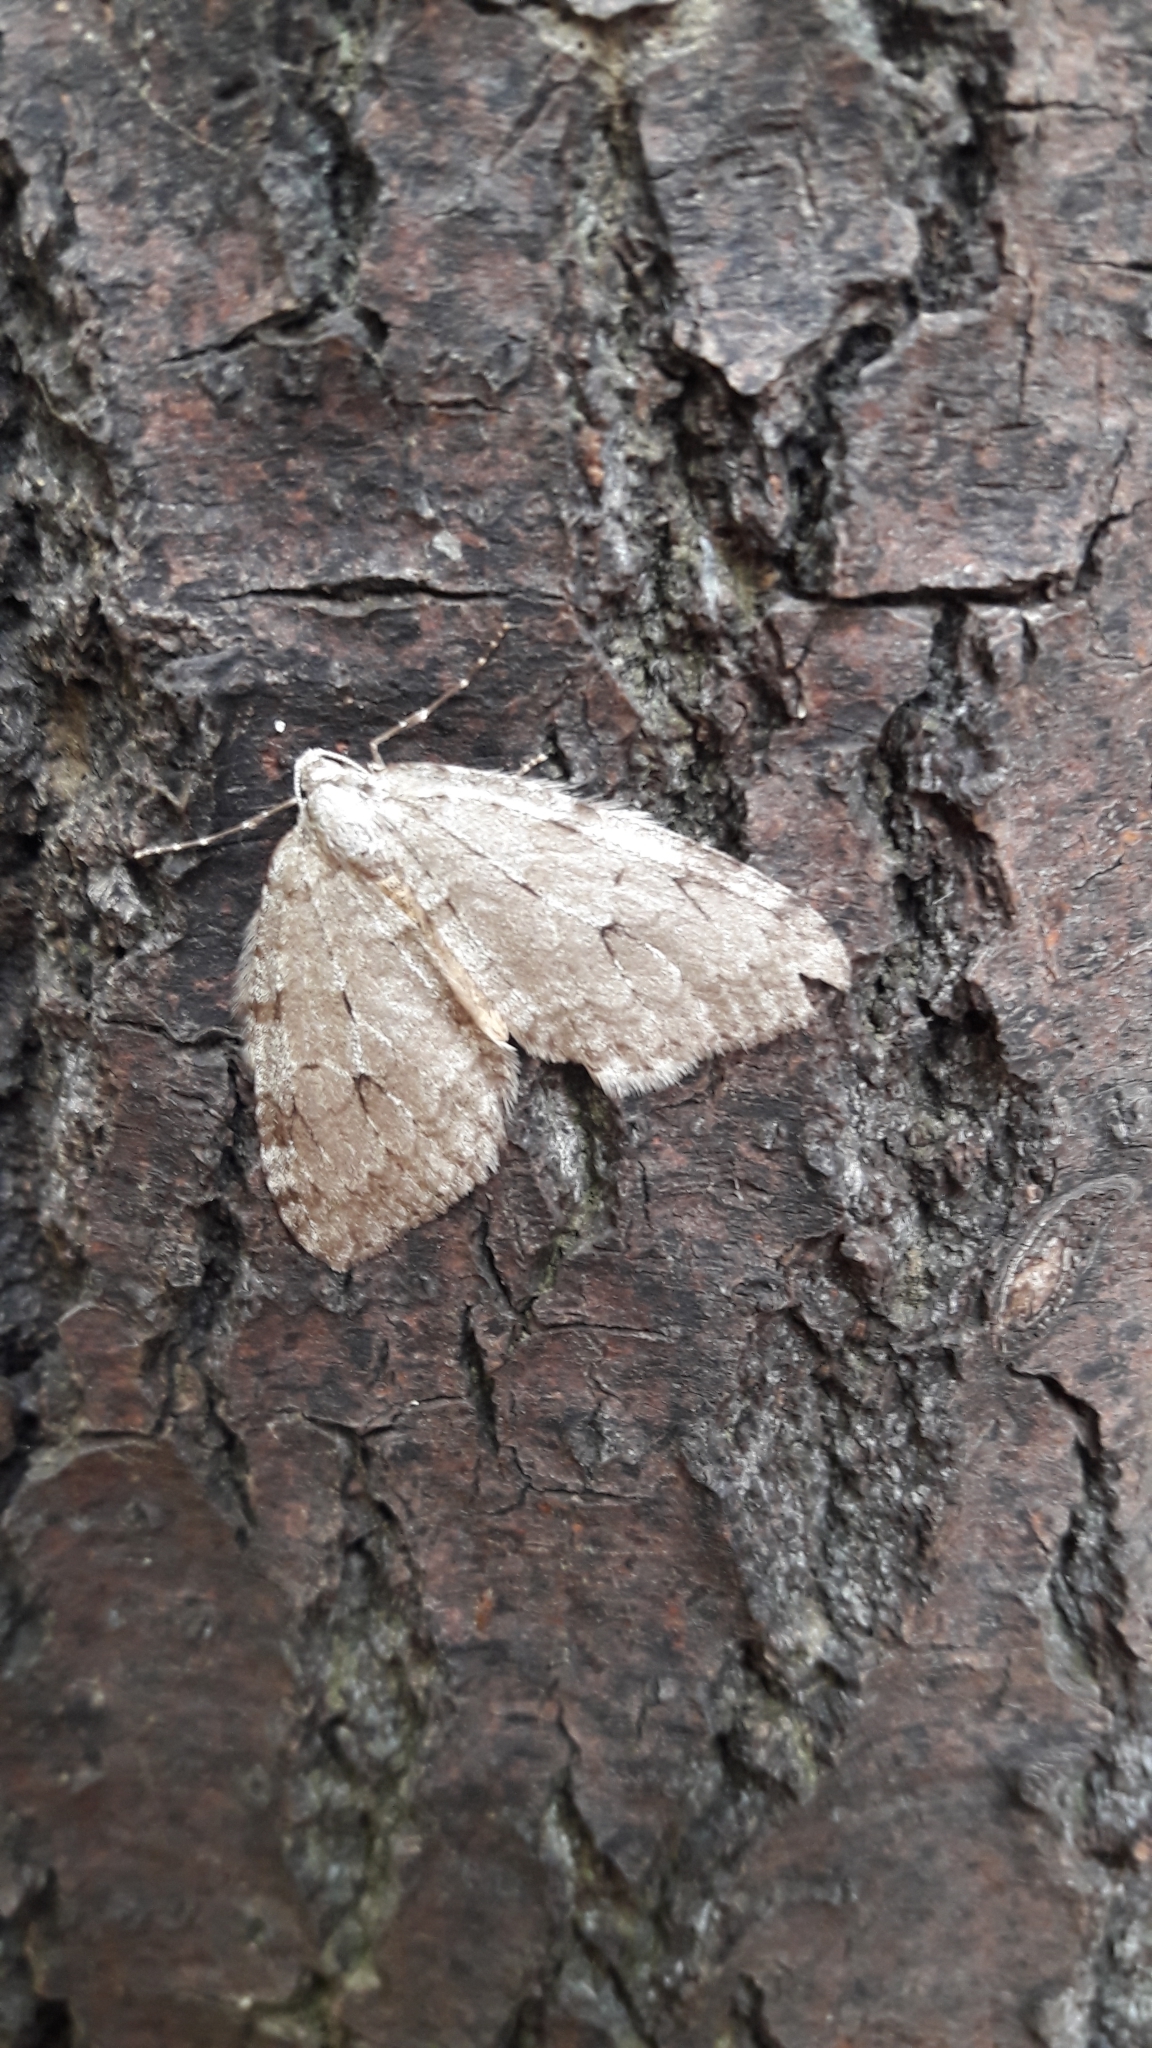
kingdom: Animalia
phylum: Arthropoda
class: Insecta
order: Lepidoptera
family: Geometridae
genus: Epirrita
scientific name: Epirrita dilutata
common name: November moth
